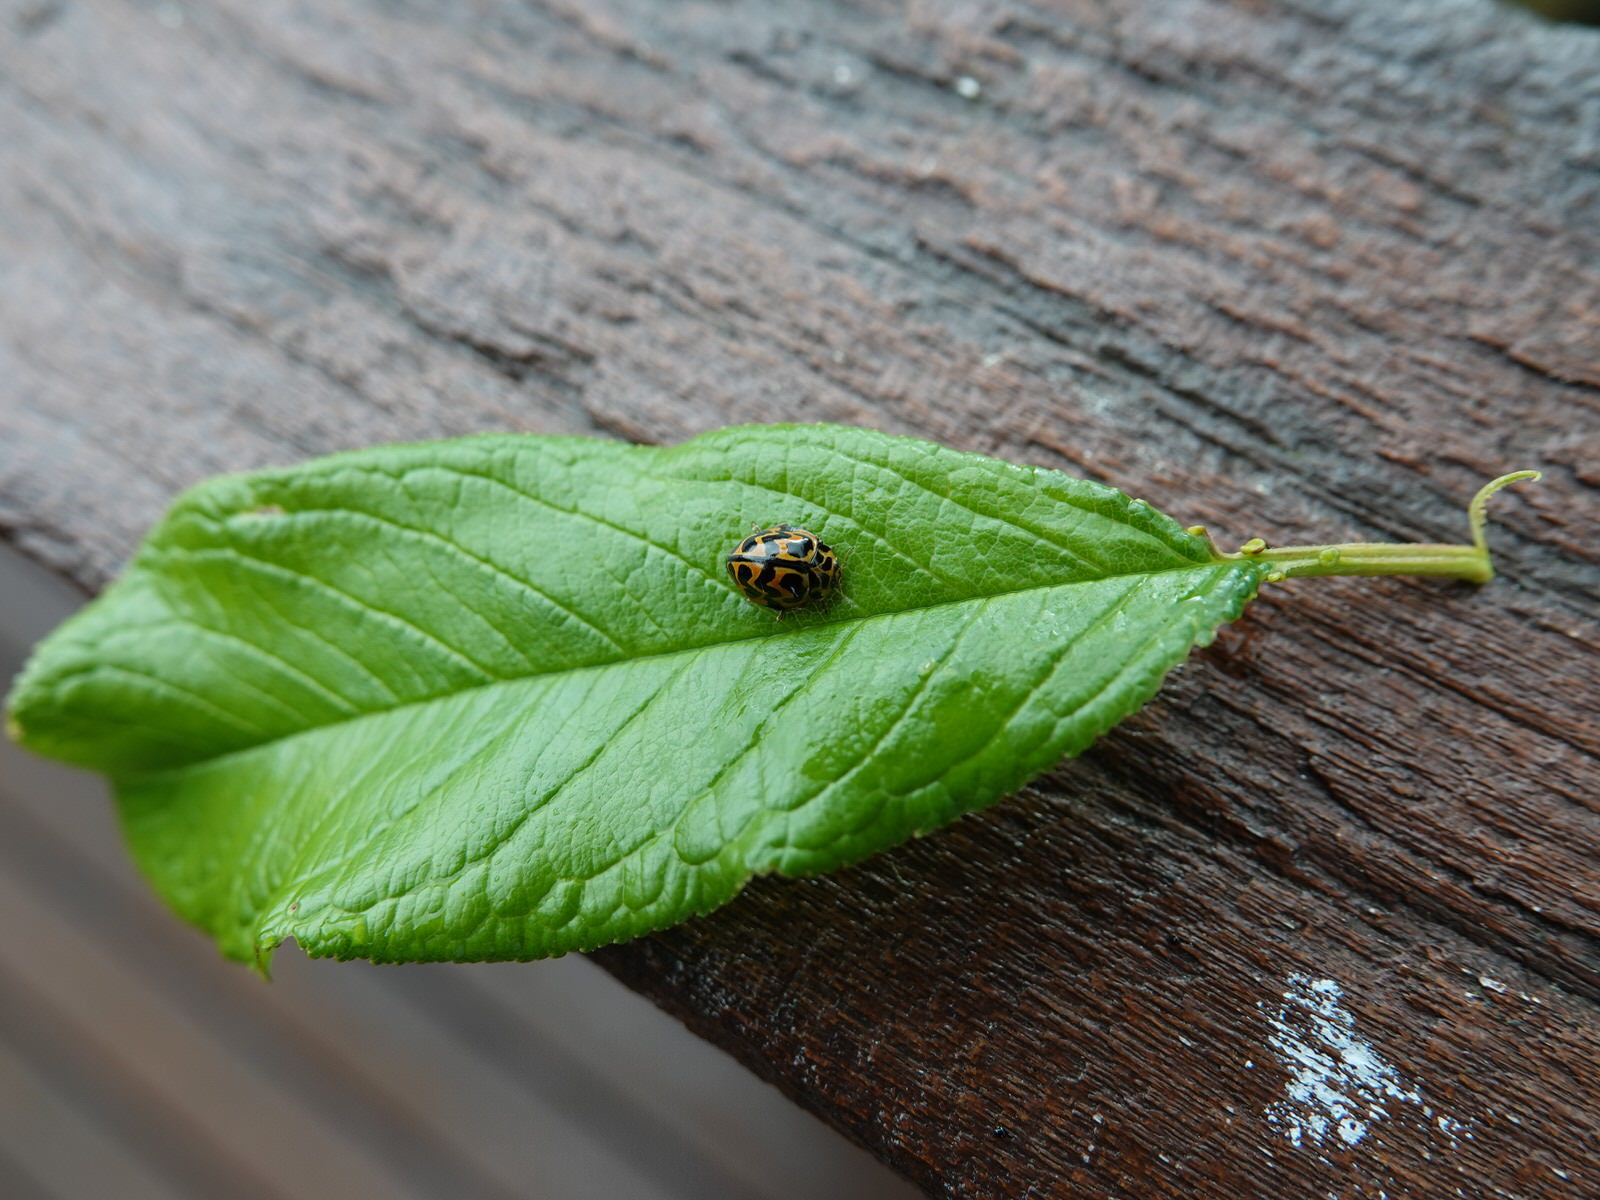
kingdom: Animalia
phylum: Arthropoda
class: Insecta
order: Coleoptera
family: Coccinellidae
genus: Cleobora
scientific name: Cleobora
